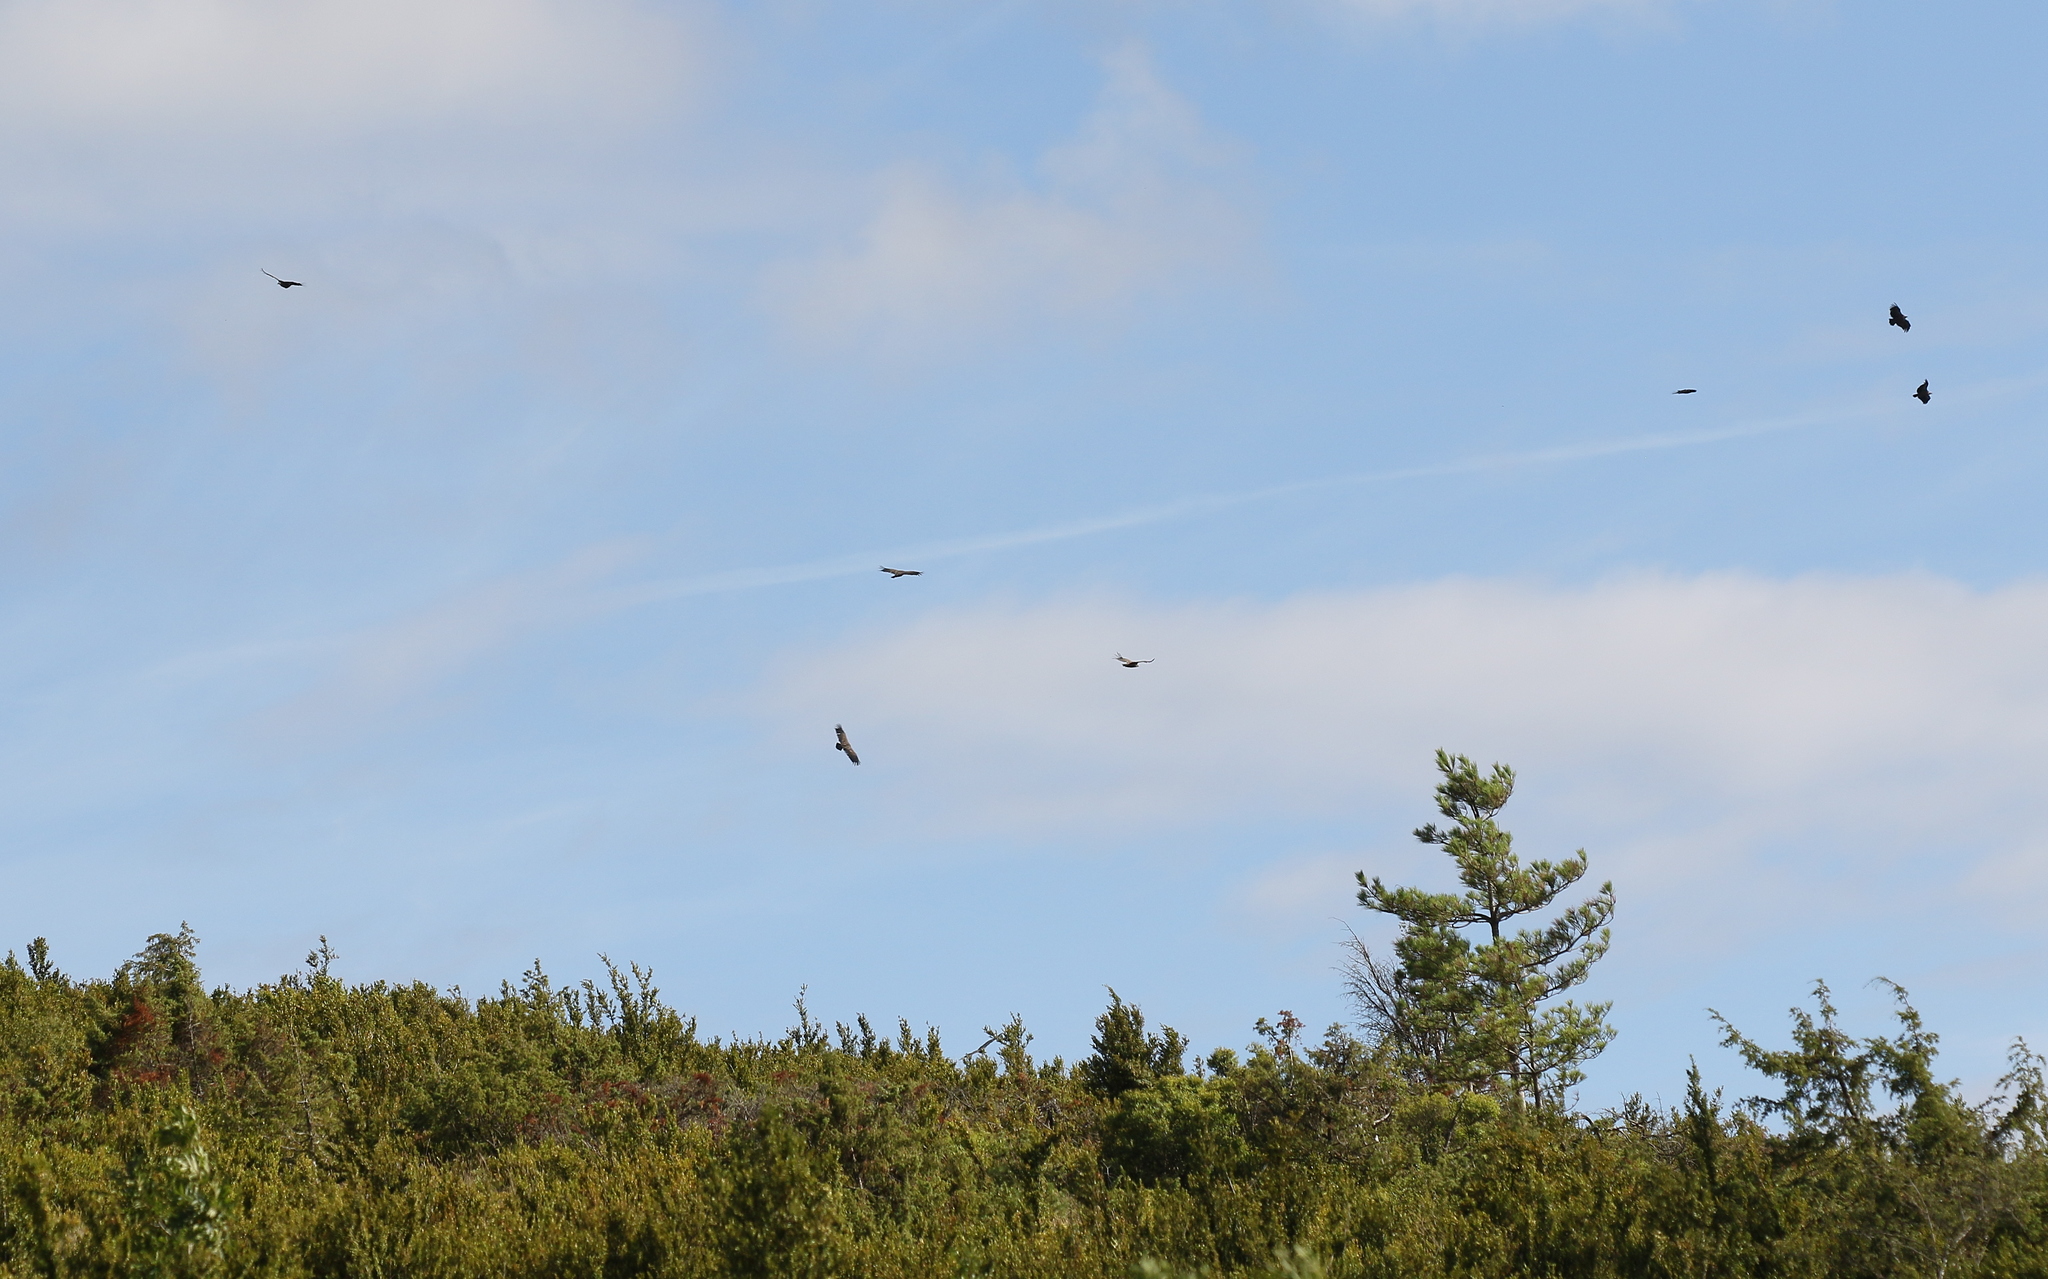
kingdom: Animalia
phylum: Chordata
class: Aves
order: Accipitriformes
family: Accipitridae
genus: Gyps
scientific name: Gyps fulvus
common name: Griffon vulture
